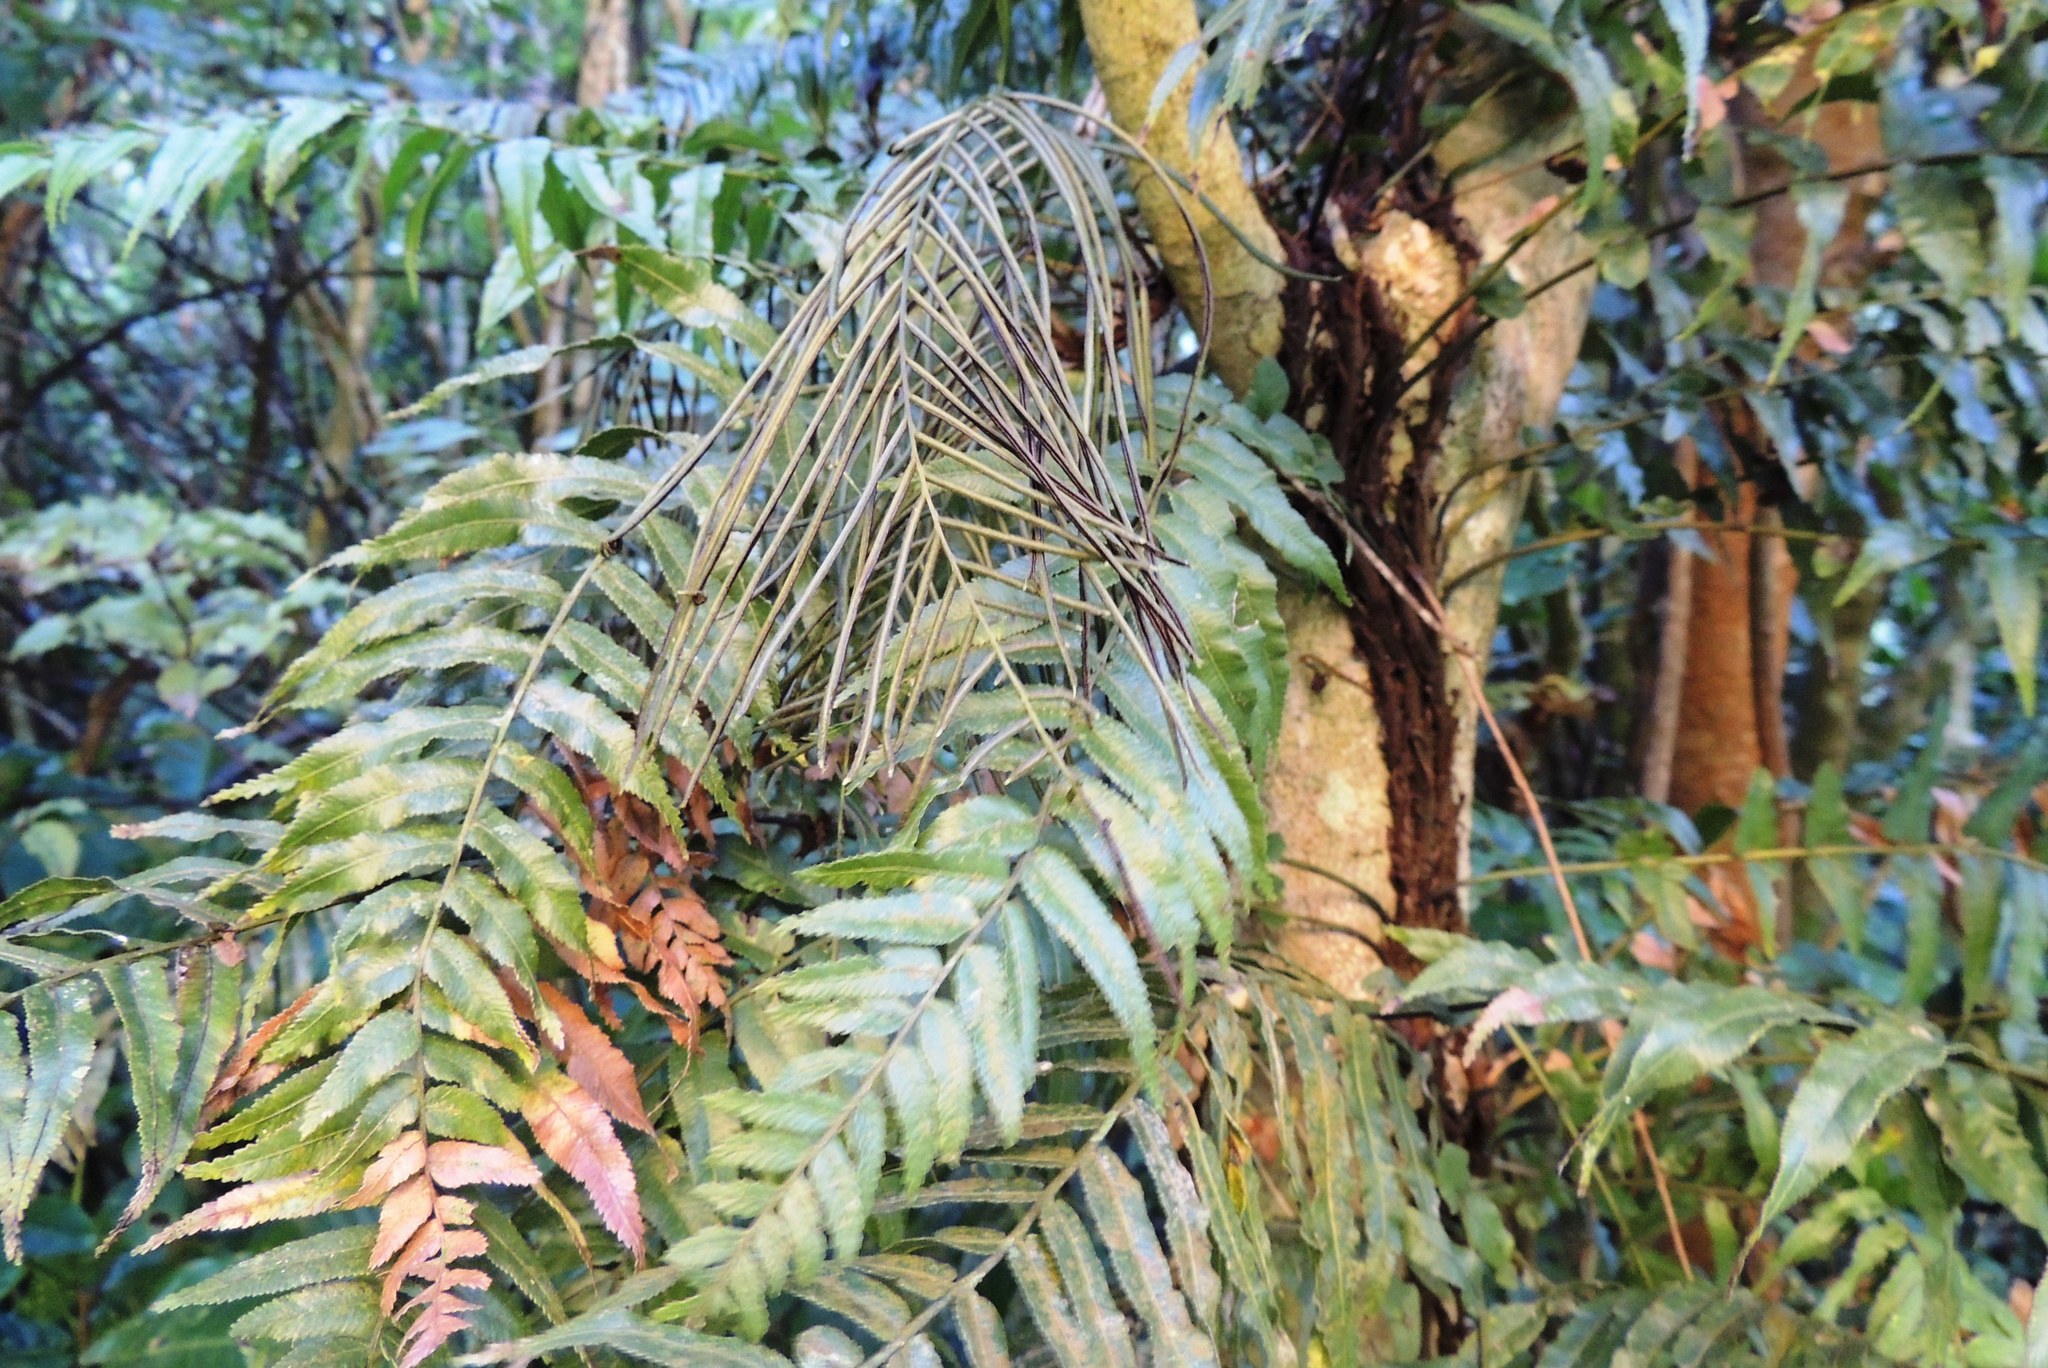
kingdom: Plantae
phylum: Tracheophyta
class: Polypodiopsida
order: Polypodiales
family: Blechnaceae
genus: Icarus
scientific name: Icarus filiformis
